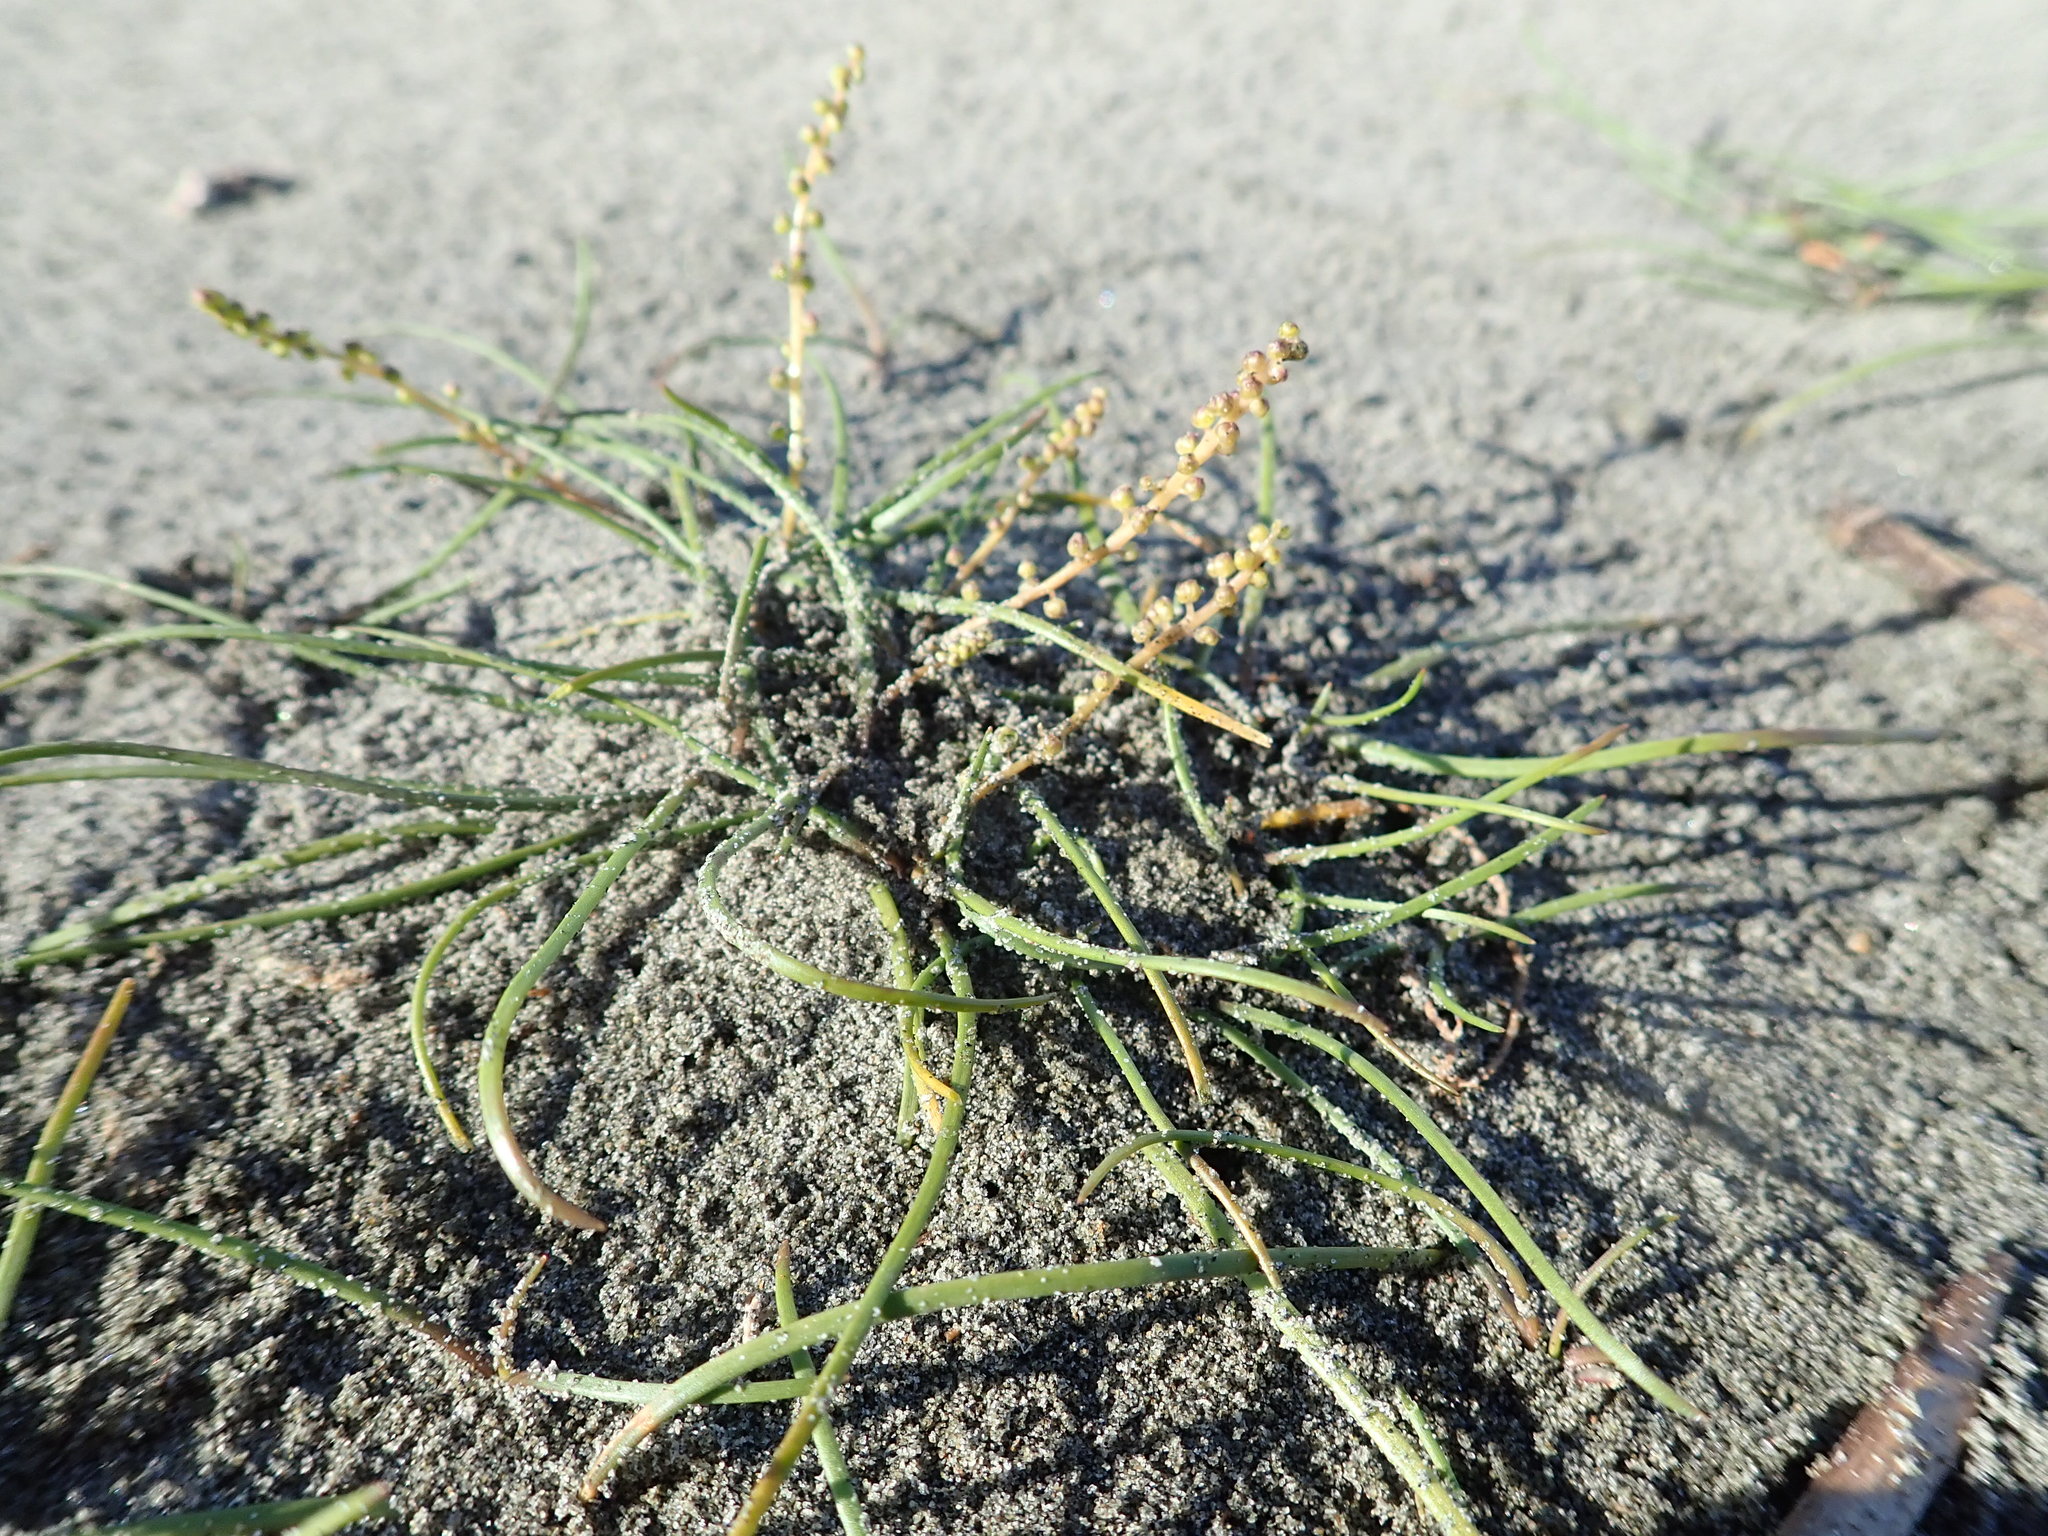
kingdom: Plantae
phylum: Tracheophyta
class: Liliopsida
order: Alismatales
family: Juncaginaceae
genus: Triglochin
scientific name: Triglochin striata
